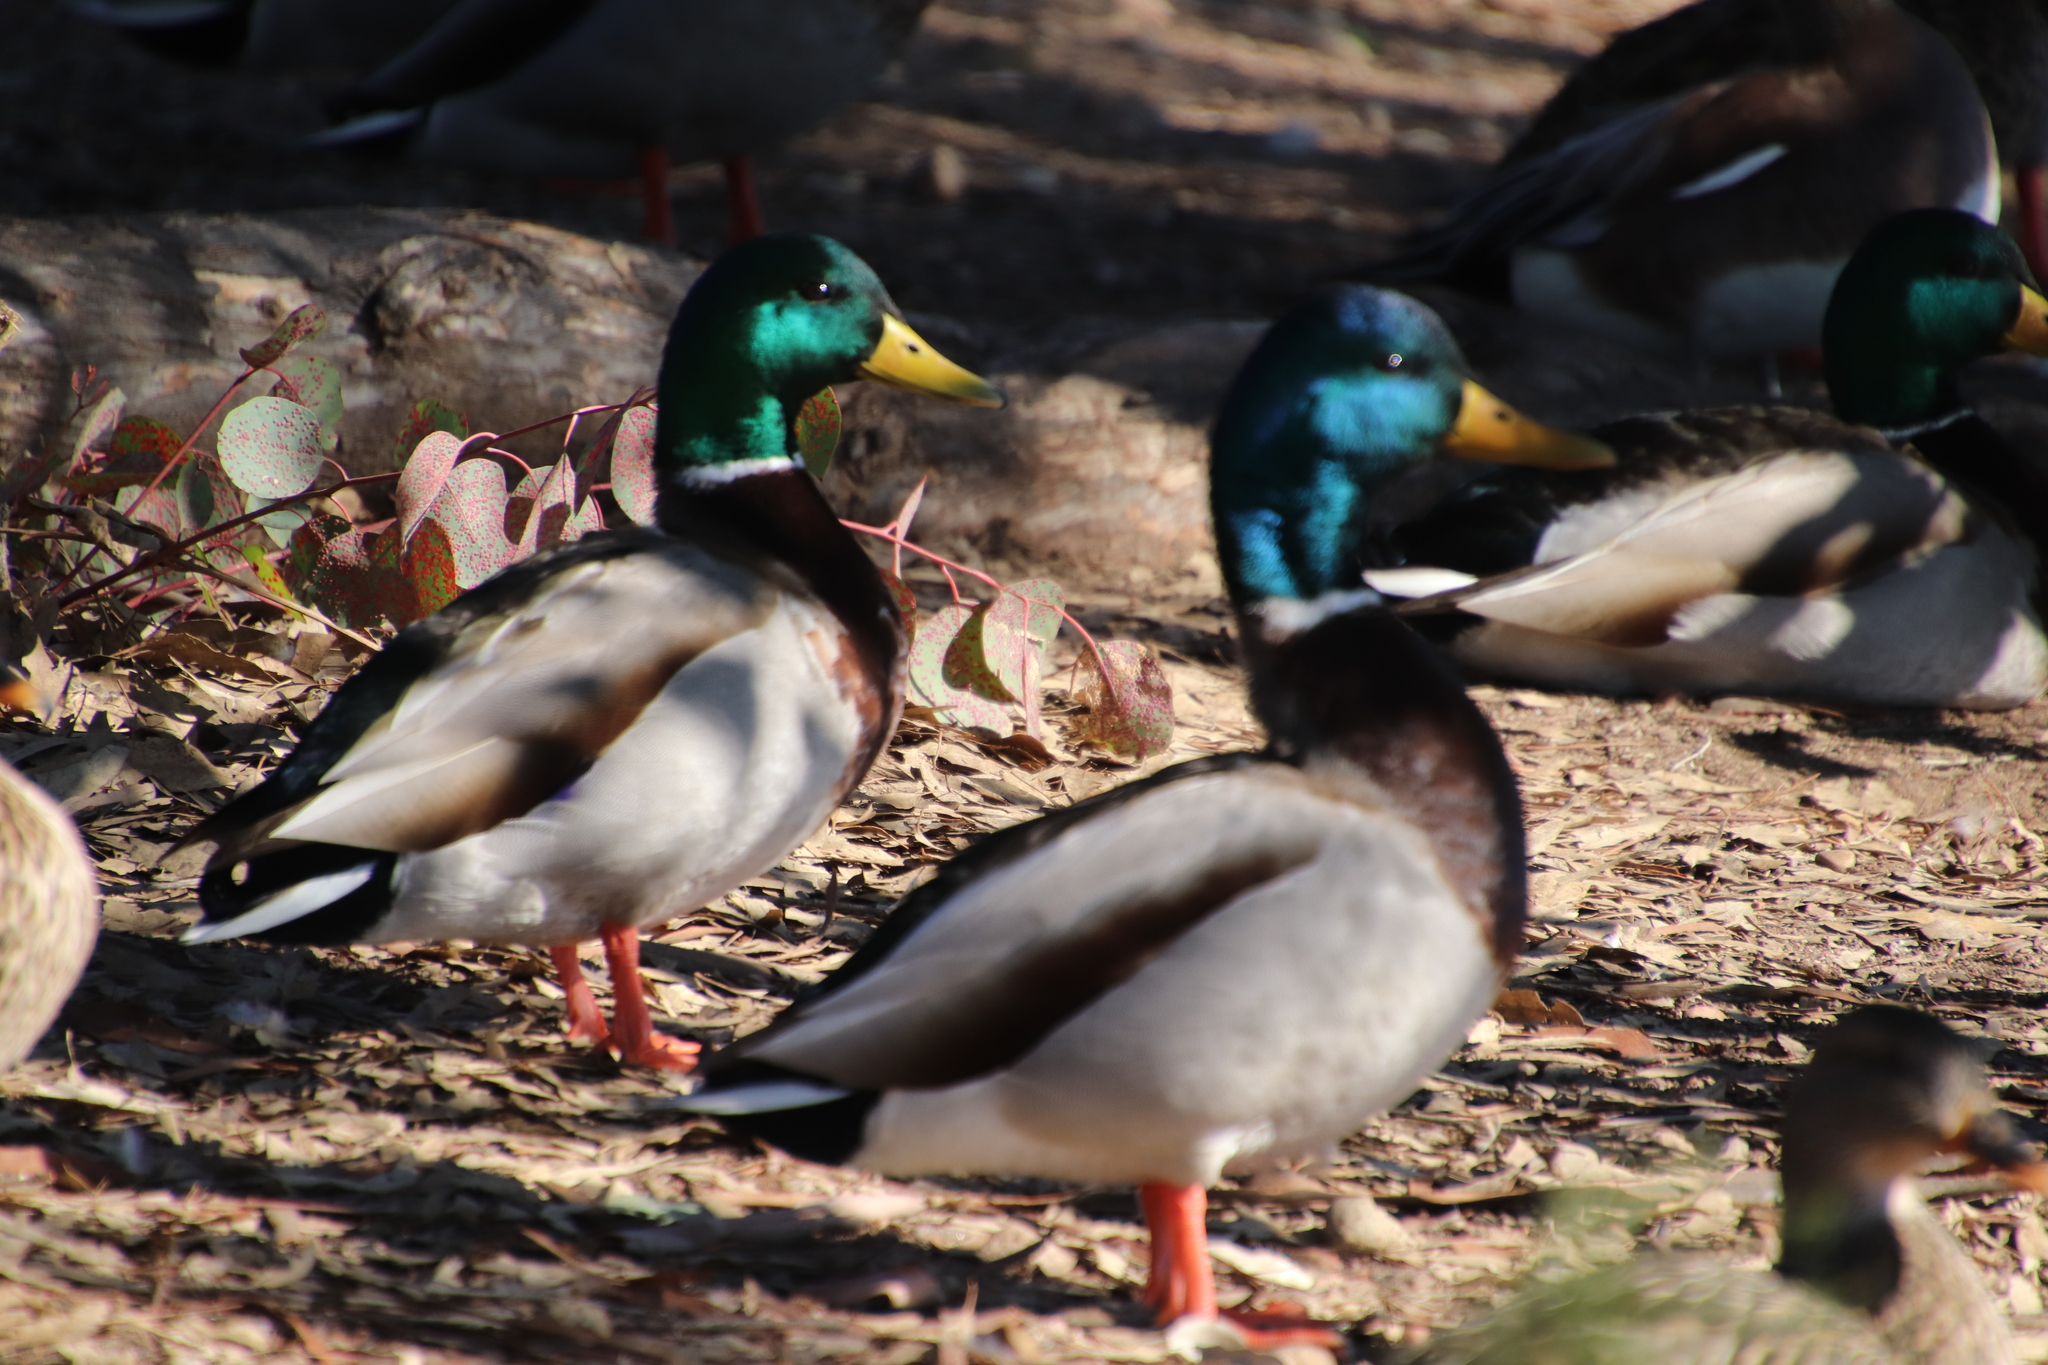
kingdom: Animalia
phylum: Chordata
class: Aves
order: Anseriformes
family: Anatidae
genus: Anas
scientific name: Anas platyrhynchos
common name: Mallard
